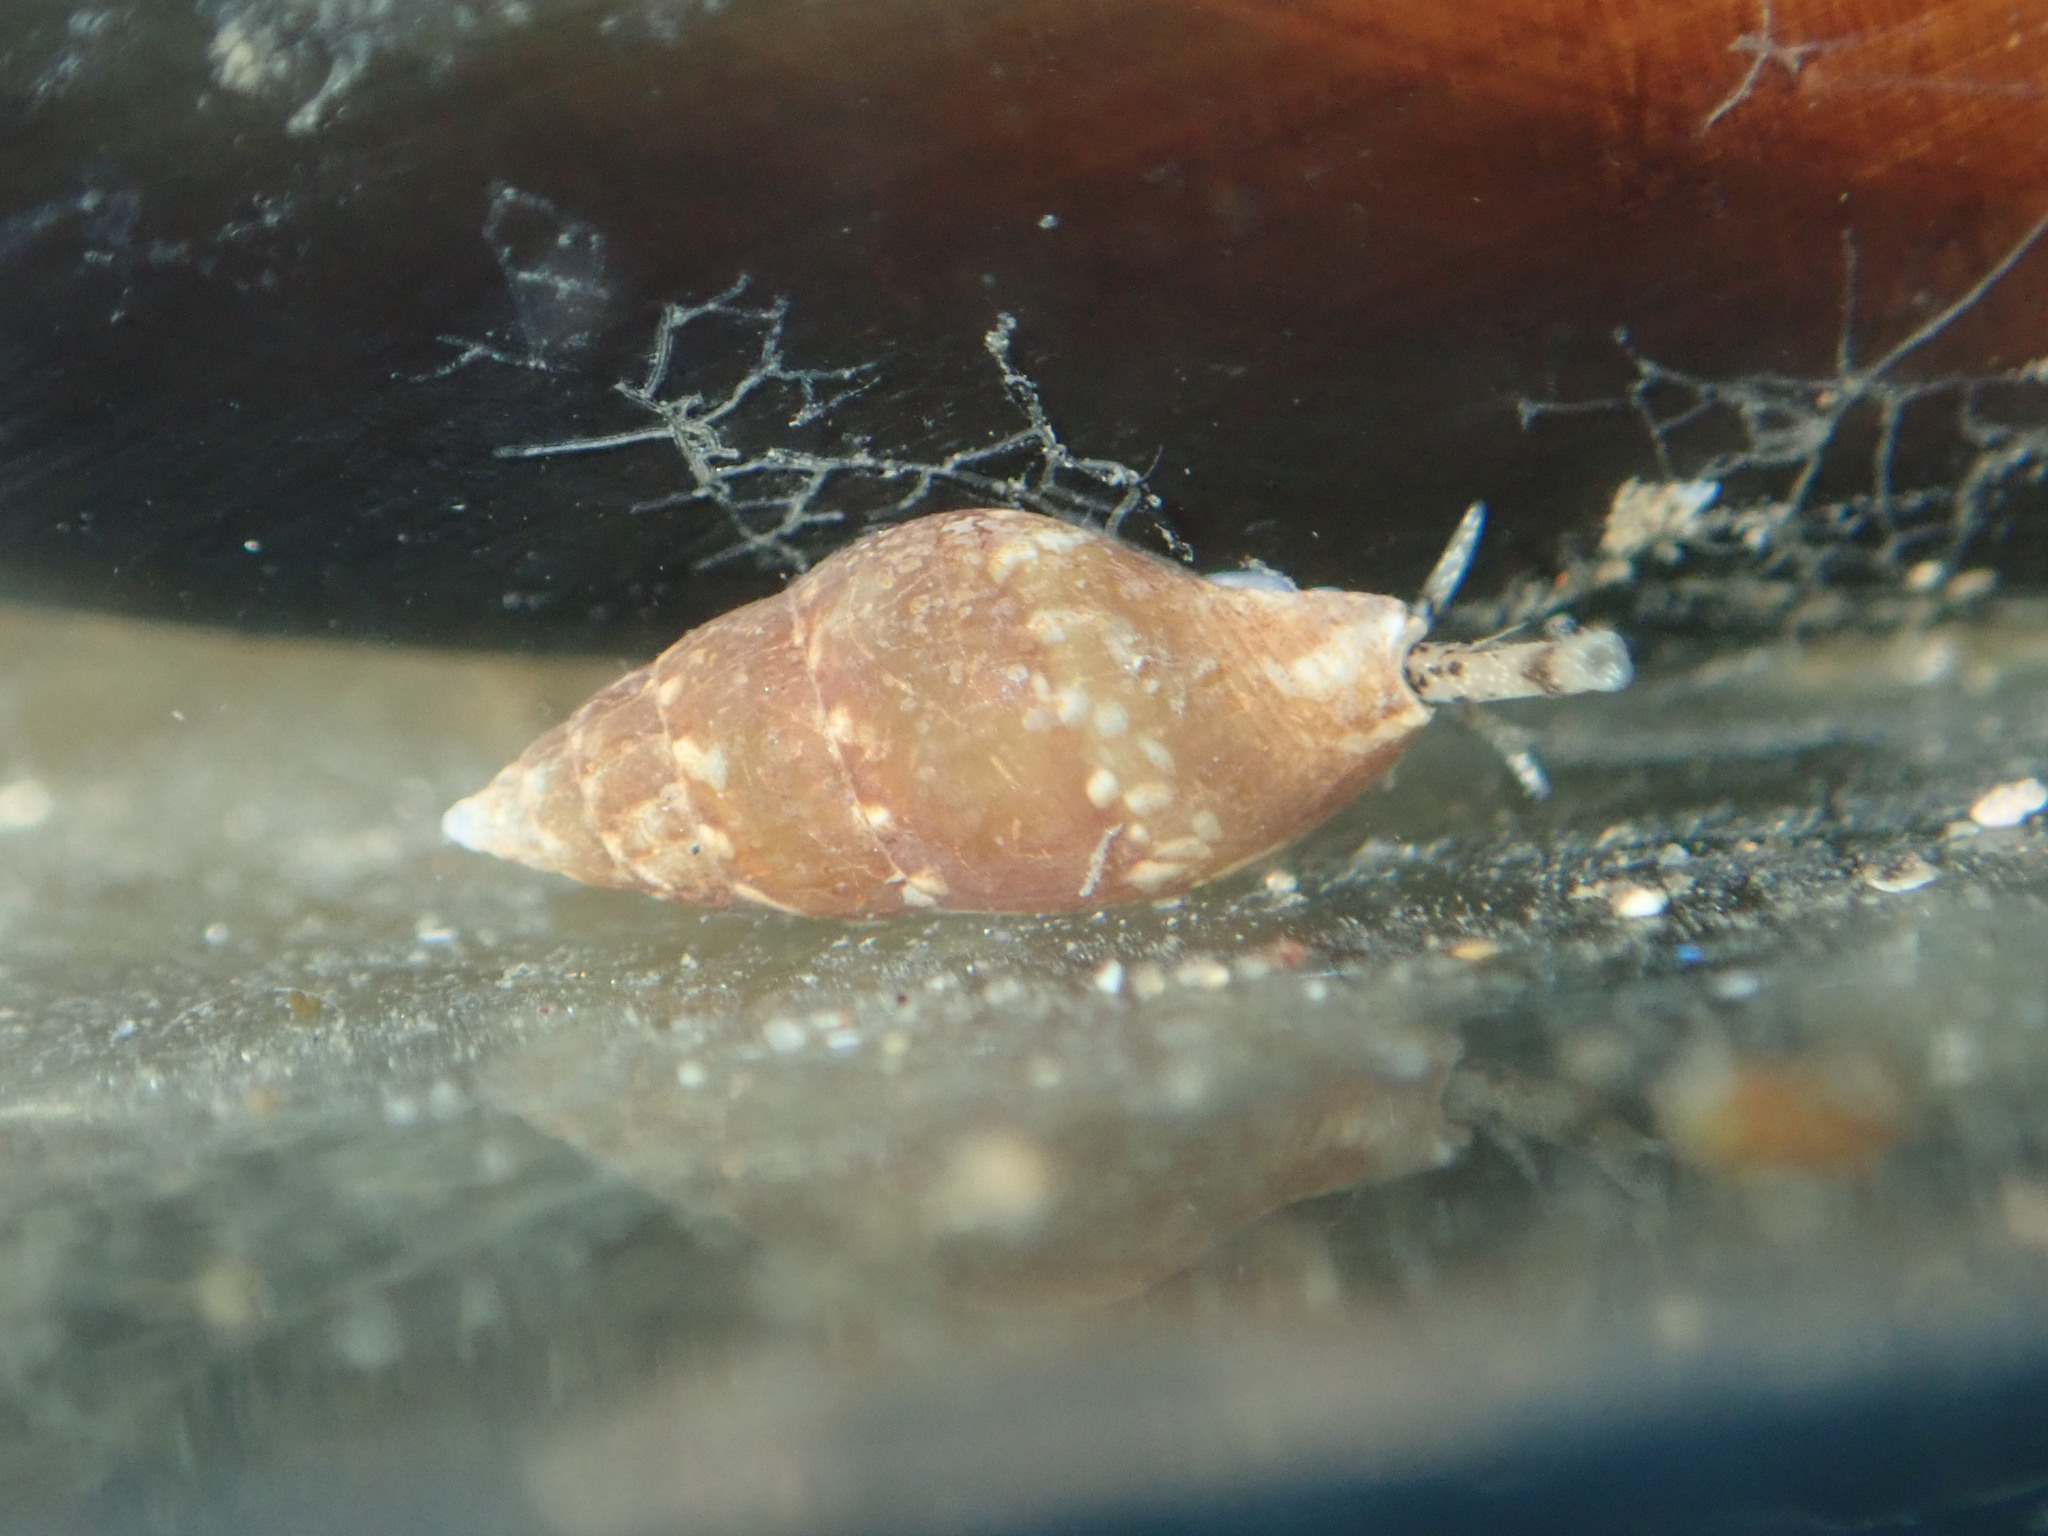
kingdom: Animalia
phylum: Mollusca
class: Gastropoda
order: Neogastropoda
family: Columbellidae
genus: Mitrella
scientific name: Mitrella bicincta
